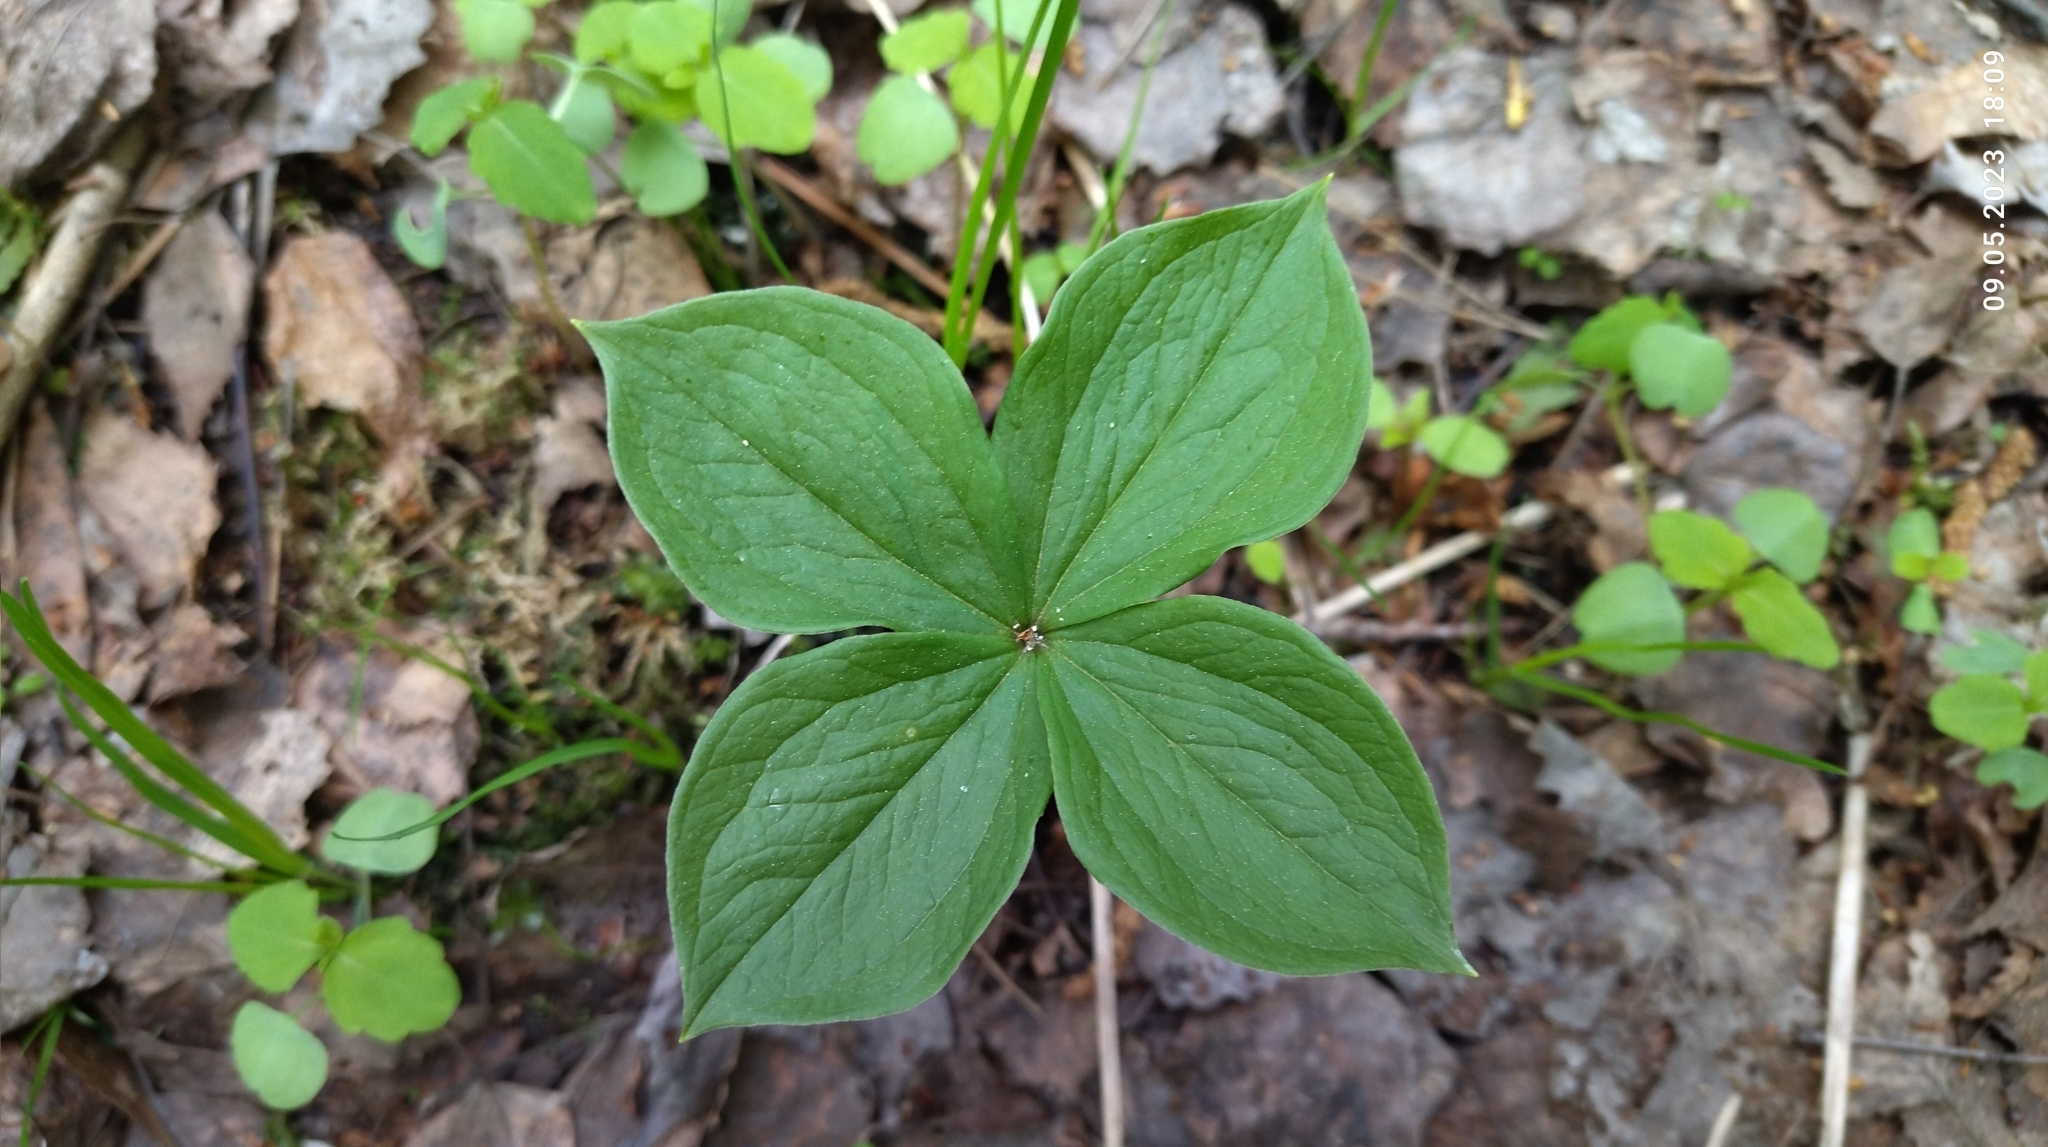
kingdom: Plantae
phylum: Tracheophyta
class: Liliopsida
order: Liliales
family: Melanthiaceae
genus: Paris
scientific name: Paris quadrifolia
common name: Herb-paris
